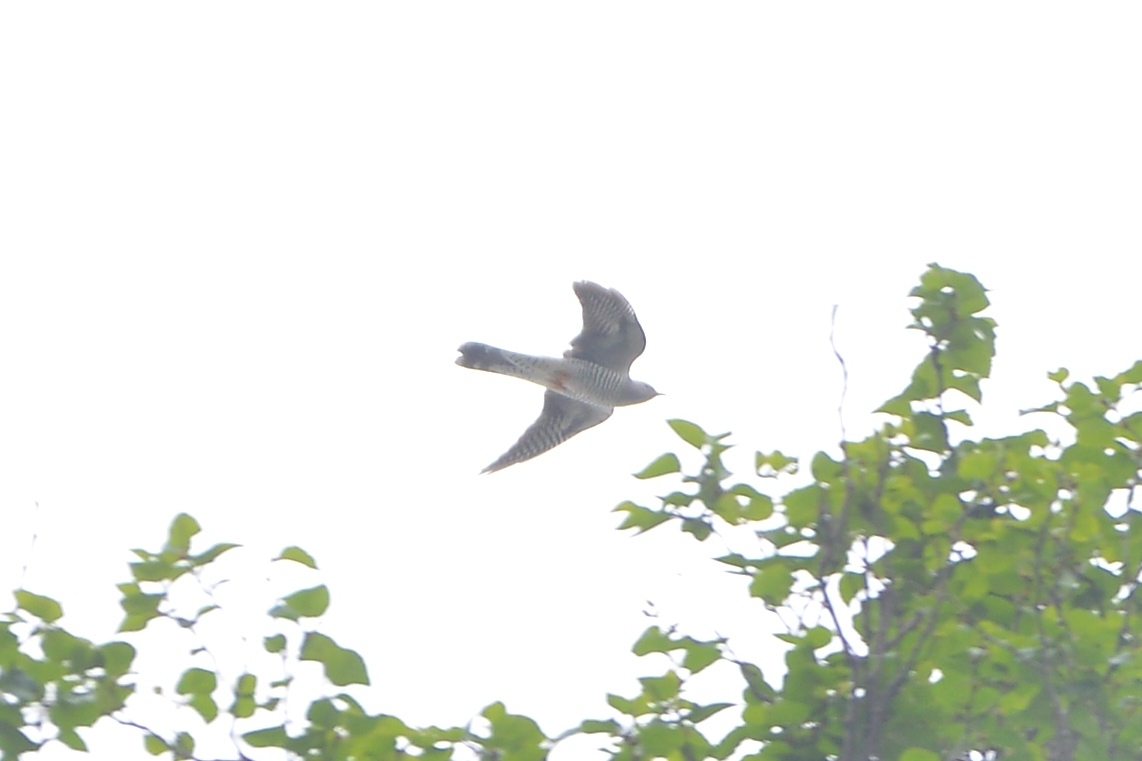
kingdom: Animalia
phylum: Chordata
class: Aves
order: Cuculiformes
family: Cuculidae
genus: Cuculus
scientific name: Cuculus canorus
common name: Common cuckoo
